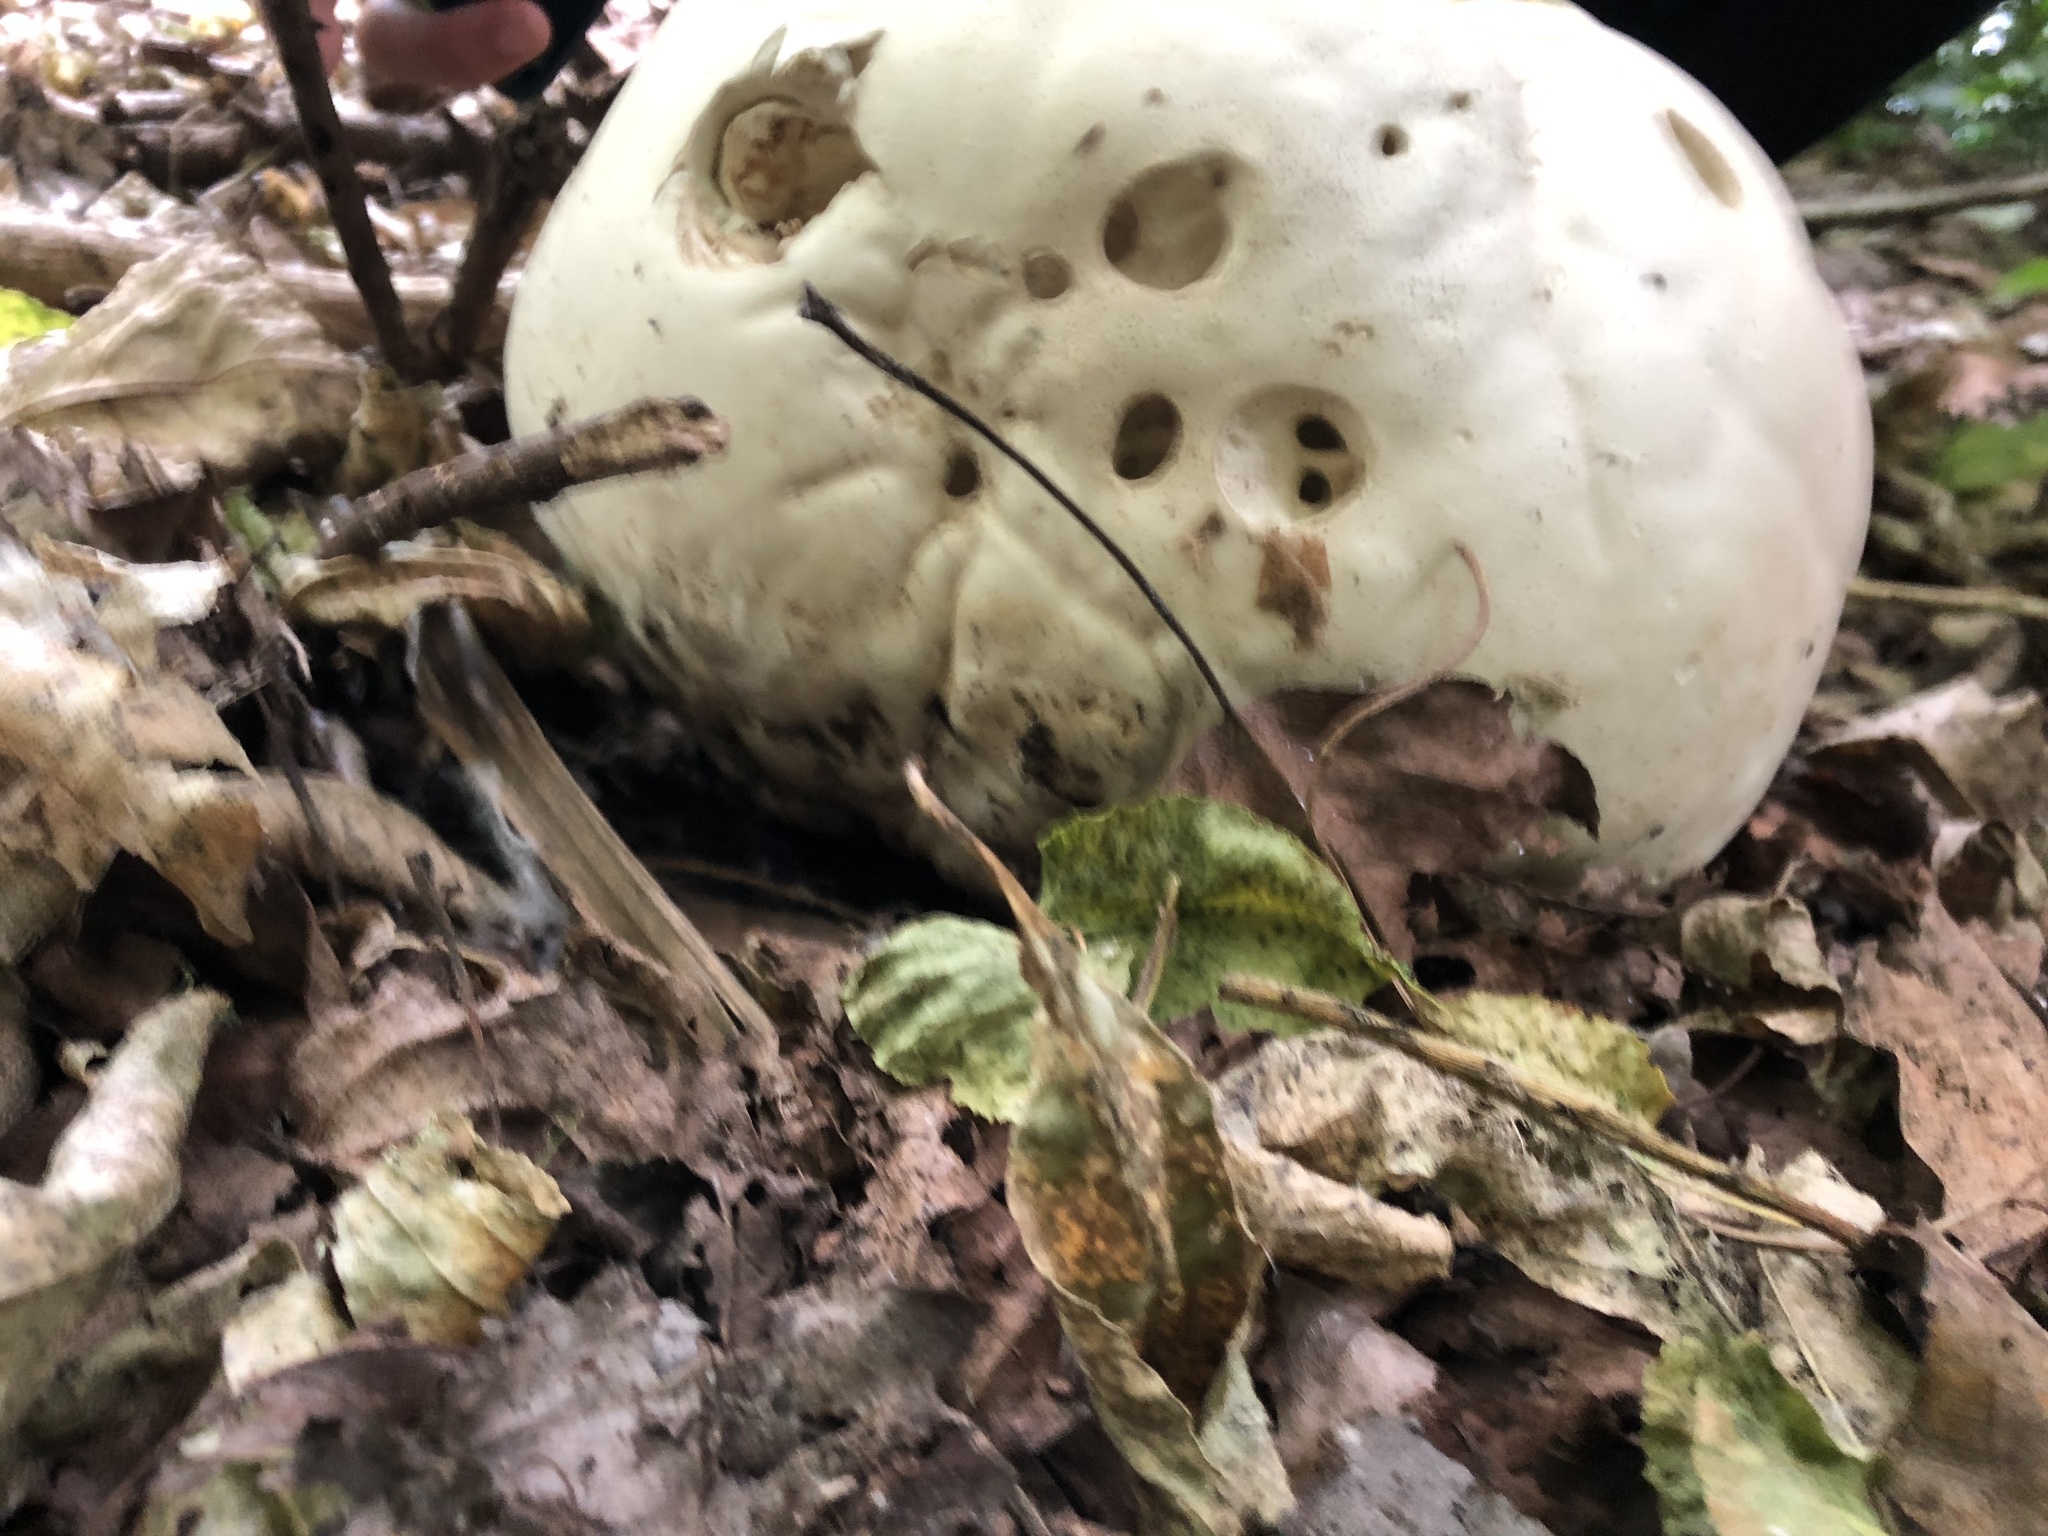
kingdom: Fungi
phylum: Basidiomycota
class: Agaricomycetes
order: Agaricales
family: Lycoperdaceae
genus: Calvatia
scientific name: Calvatia gigantea
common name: Giant puffball
